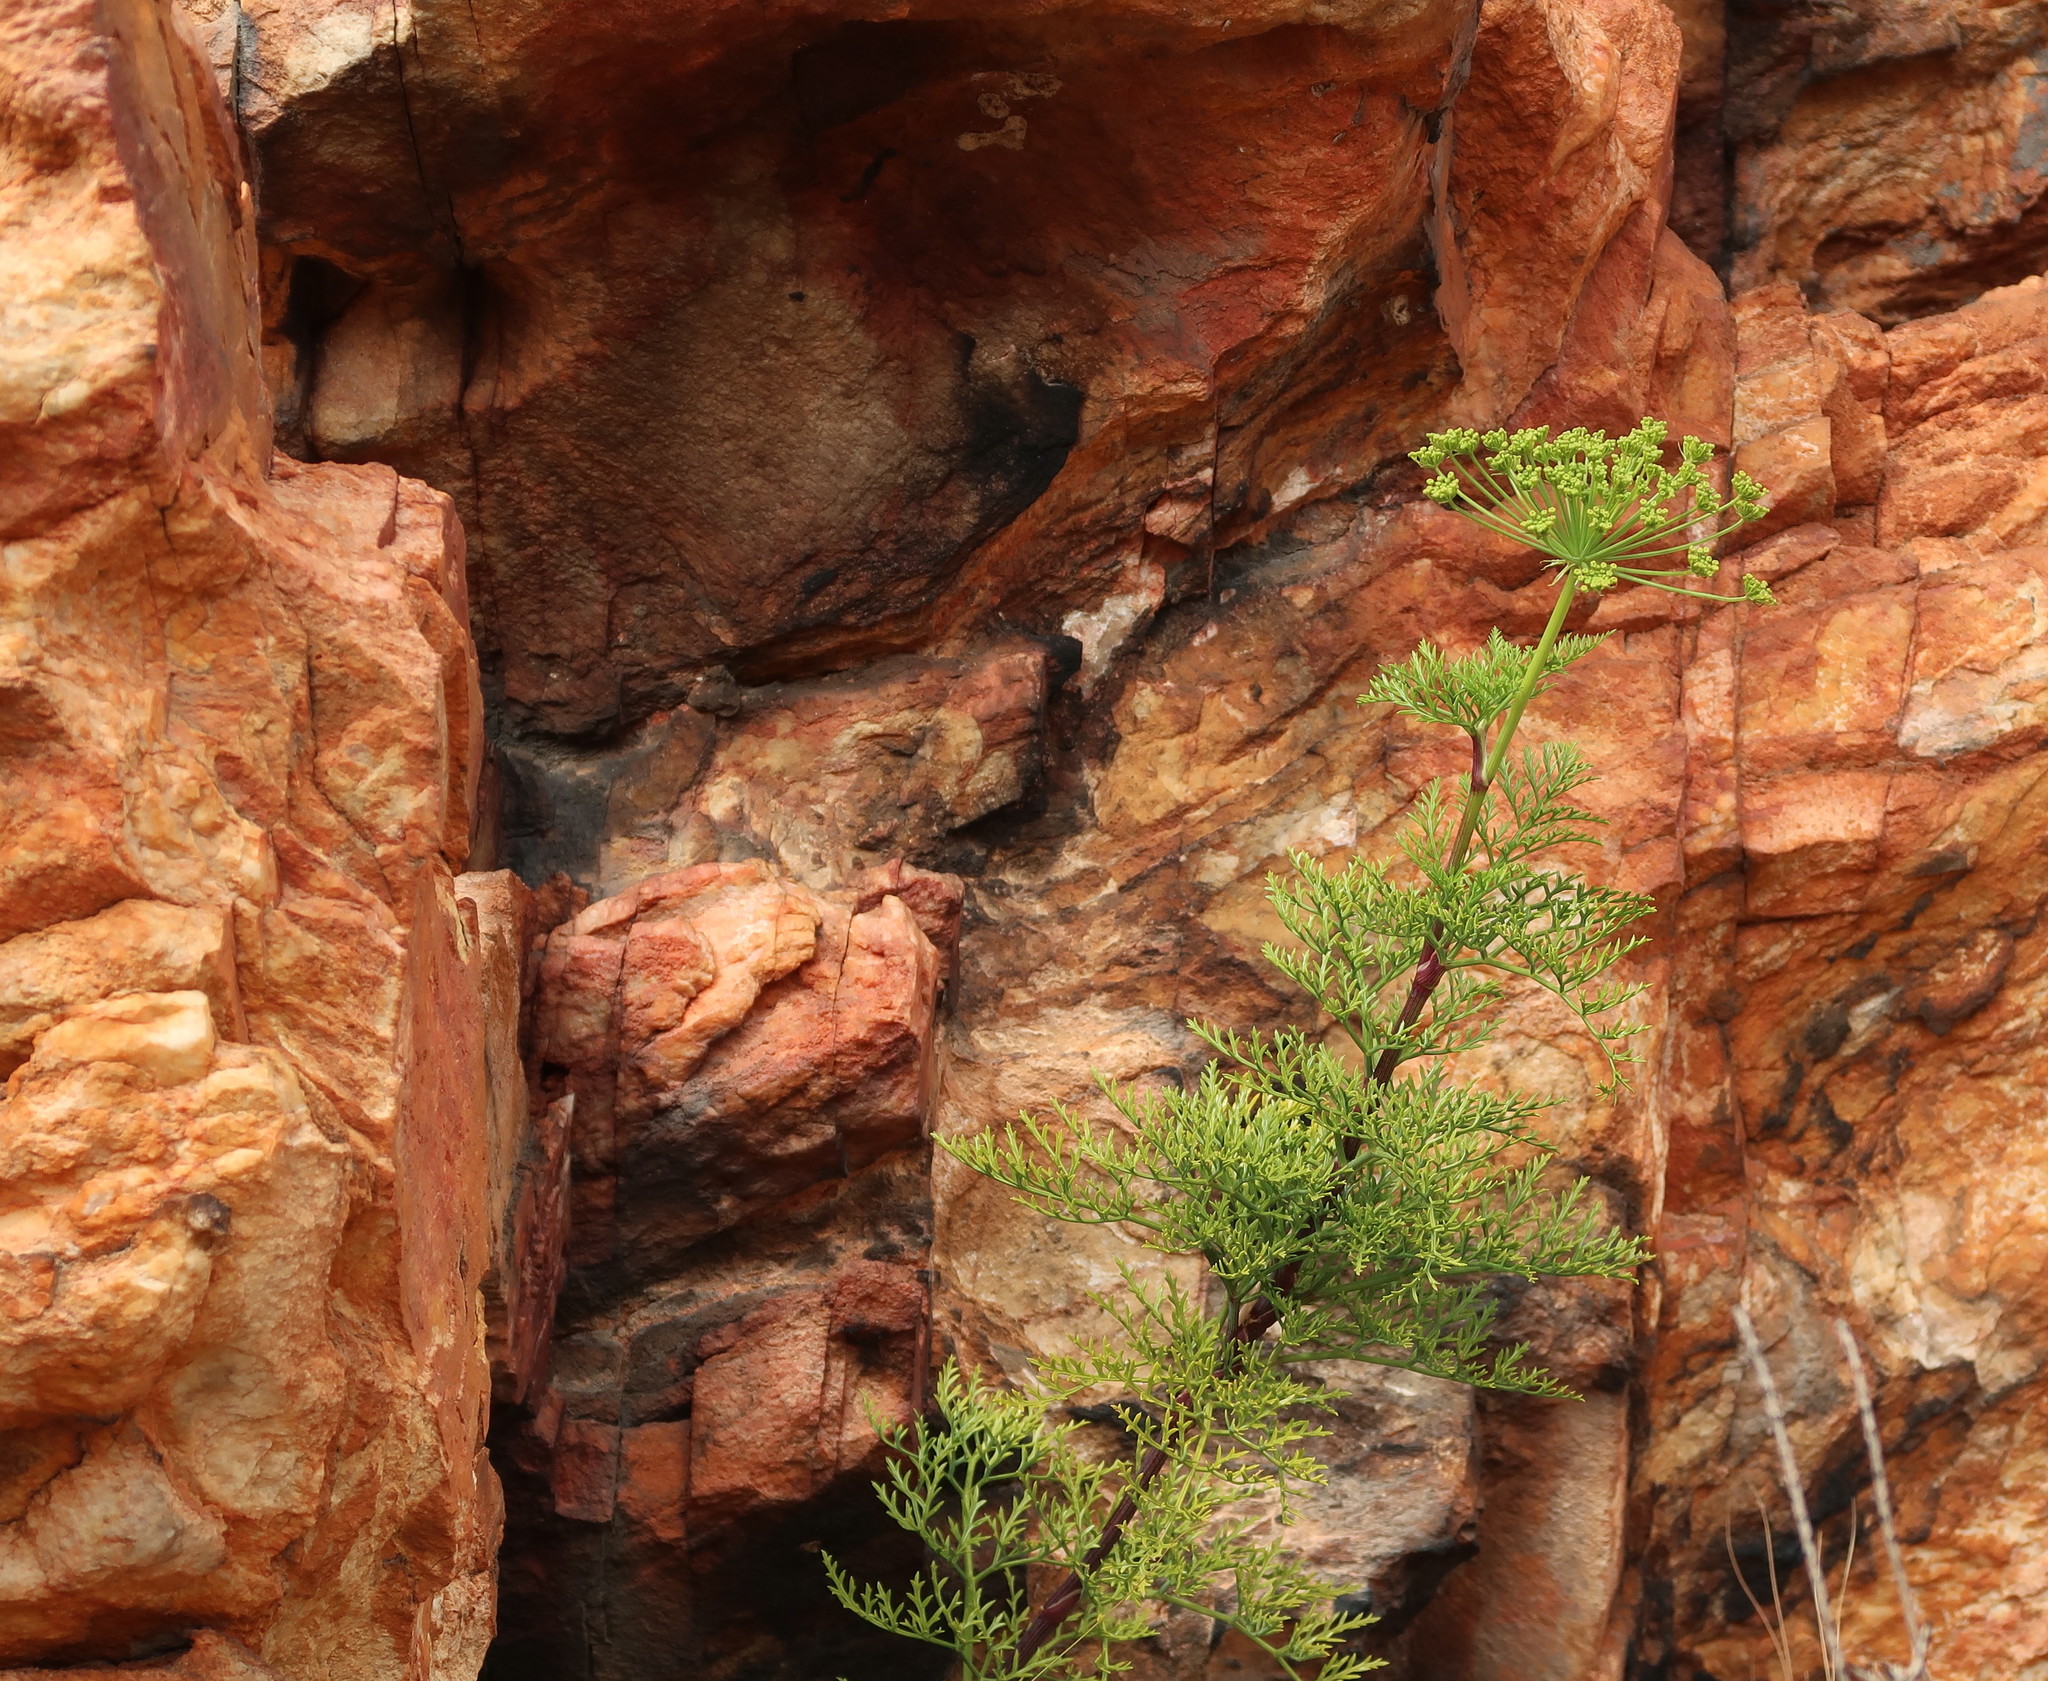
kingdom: Plantae
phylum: Tracheophyta
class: Magnoliopsida
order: Apiales
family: Apiaceae
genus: Notobubon
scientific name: Notobubon tenuifolium
